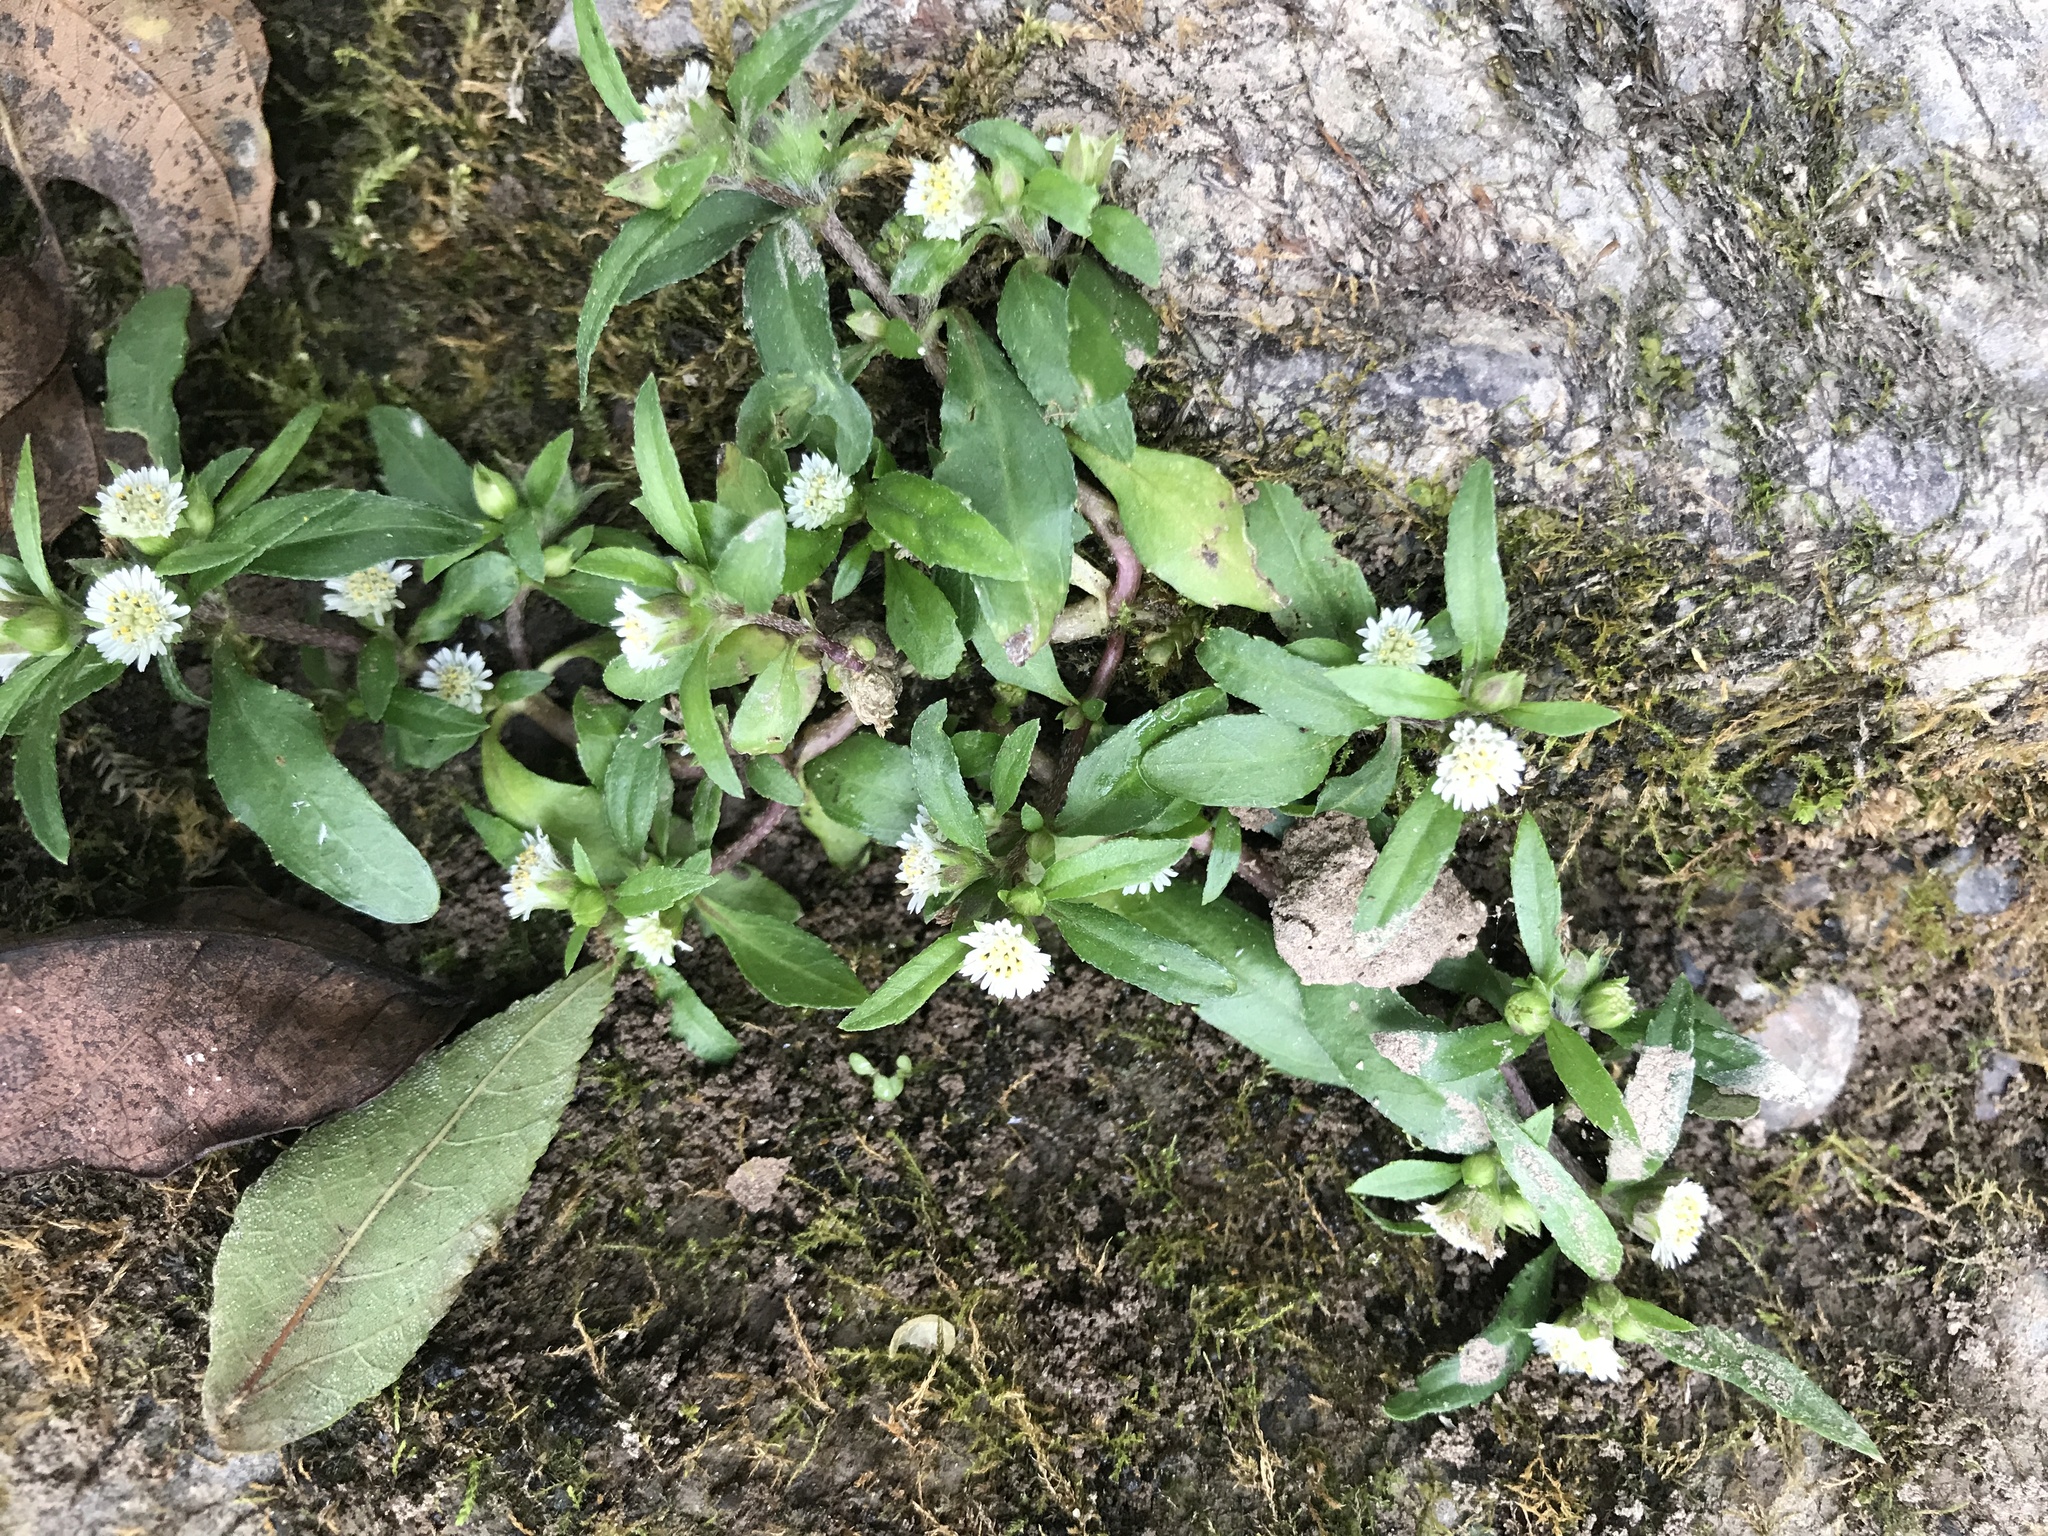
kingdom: Plantae
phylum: Tracheophyta
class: Magnoliopsida
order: Asterales
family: Asteraceae
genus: Eclipta
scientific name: Eclipta prostrata
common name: False daisy
